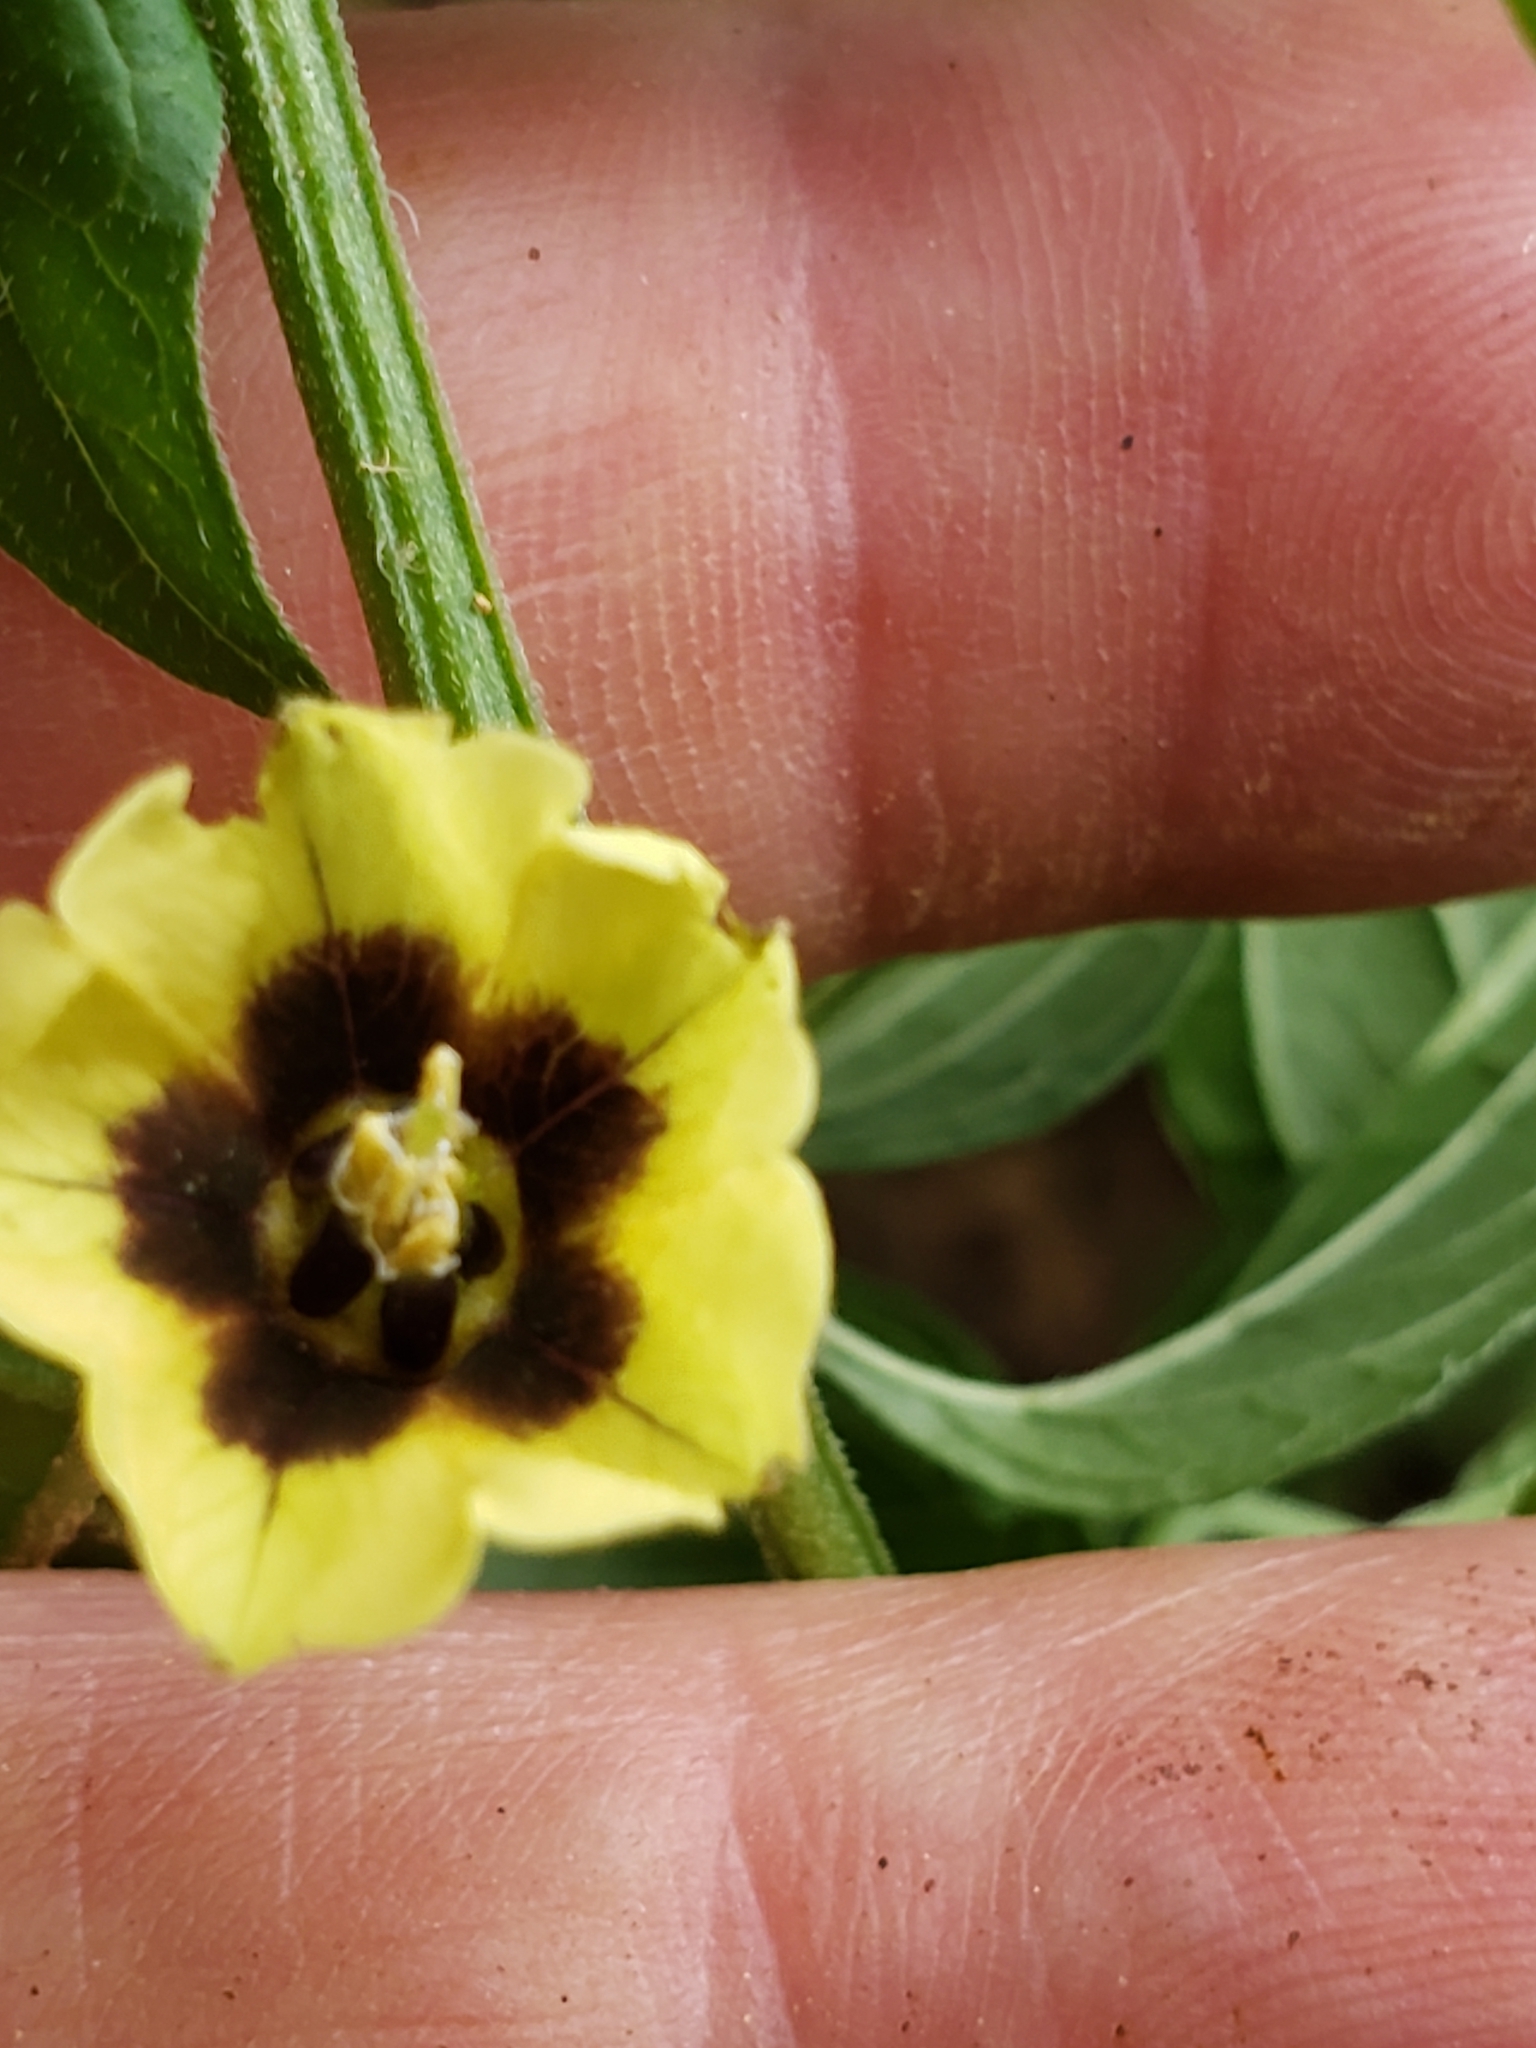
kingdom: Plantae
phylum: Tracheophyta
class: Magnoliopsida
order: Solanales
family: Solanaceae
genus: Physalis
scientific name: Physalis longifolia
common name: Common ground-cherry
